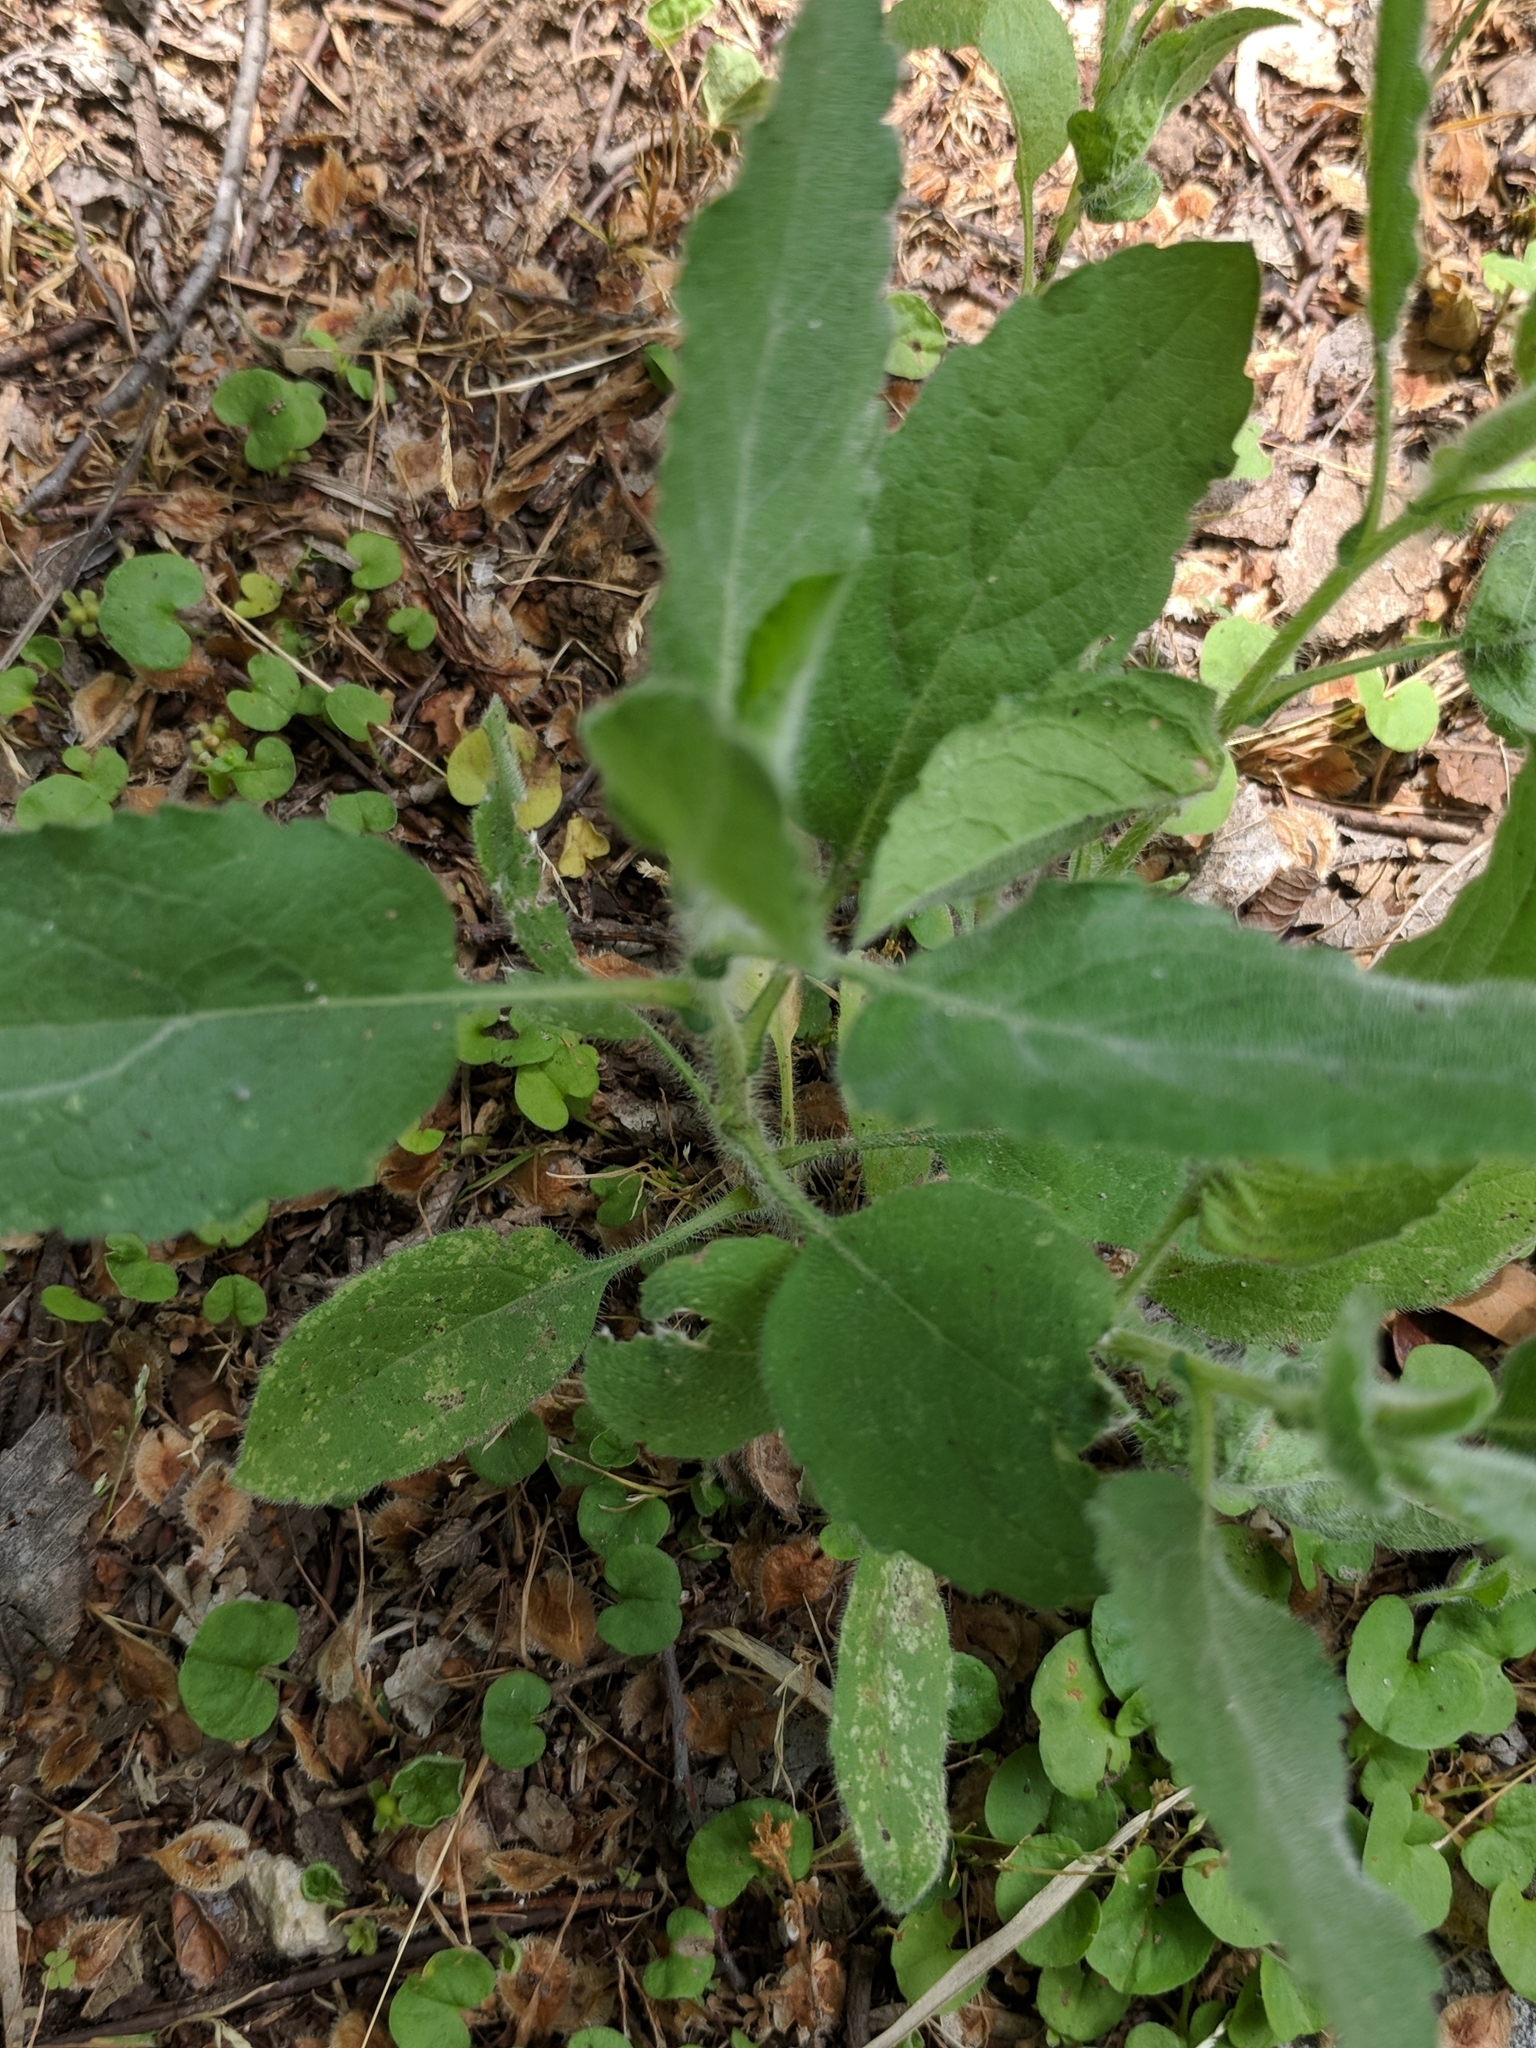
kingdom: Plantae
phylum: Tracheophyta
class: Magnoliopsida
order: Asterales
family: Asteraceae
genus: Heterotheca
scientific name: Heterotheca subaxillaris
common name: Camphorweed
